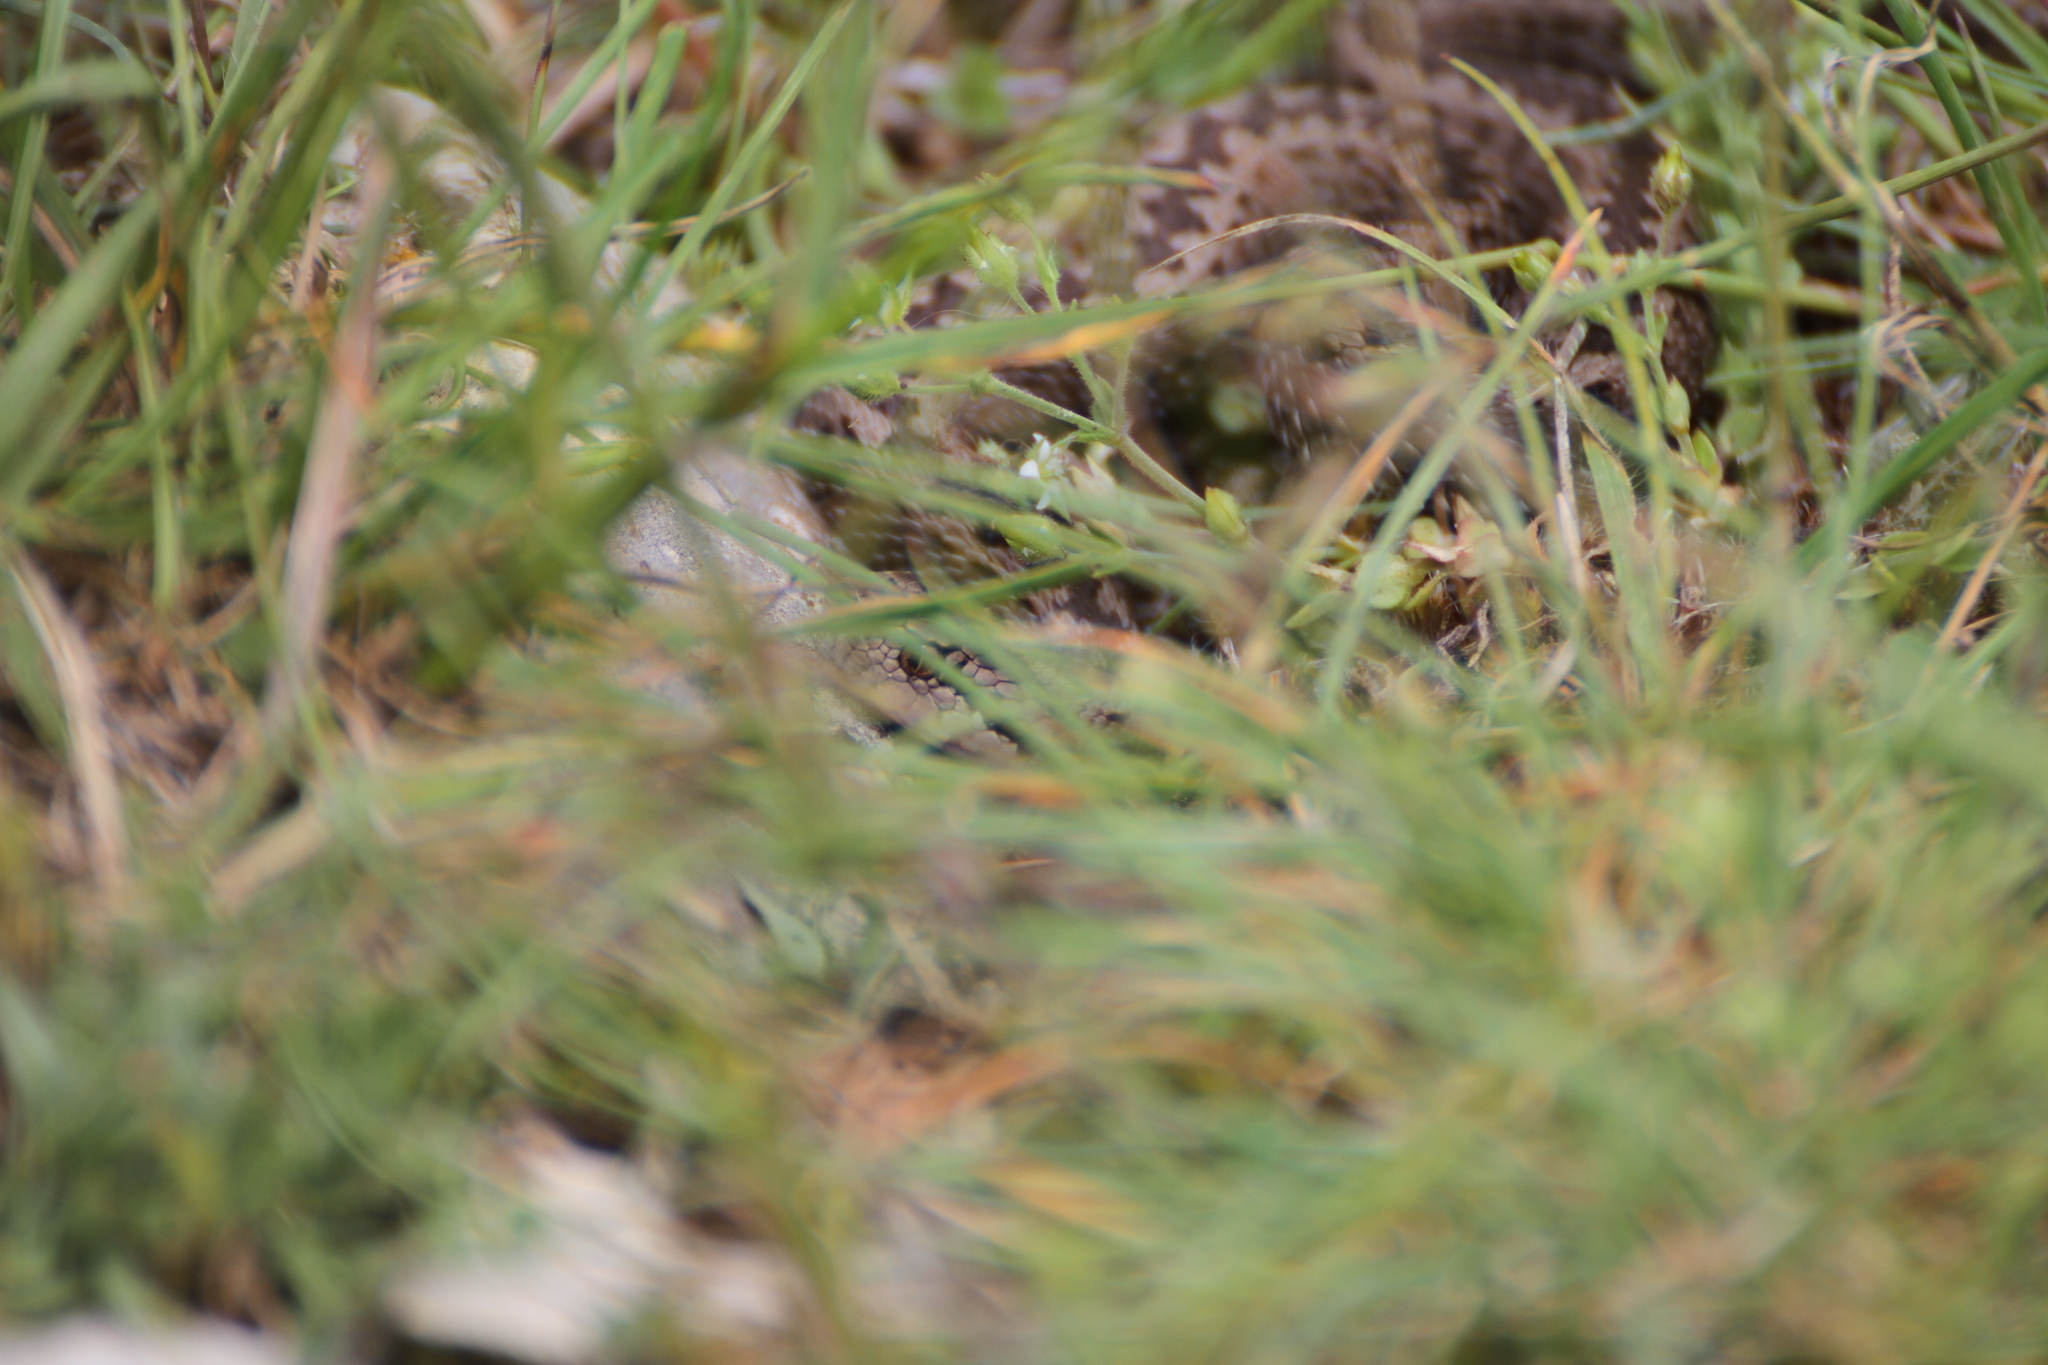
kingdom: Animalia
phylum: Chordata
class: Squamata
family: Viperidae
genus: Vipera
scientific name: Vipera ursinii
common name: Meadow viper
